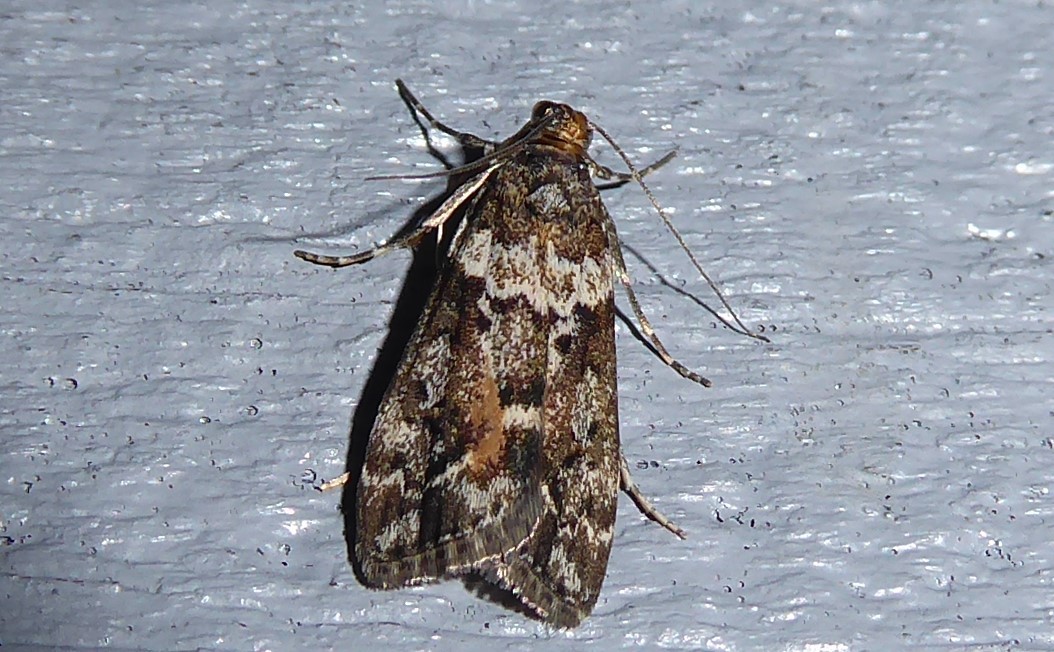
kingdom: Animalia
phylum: Arthropoda
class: Insecta
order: Lepidoptera
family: Crambidae
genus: Eudonia
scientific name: Eudonia submarginalis
